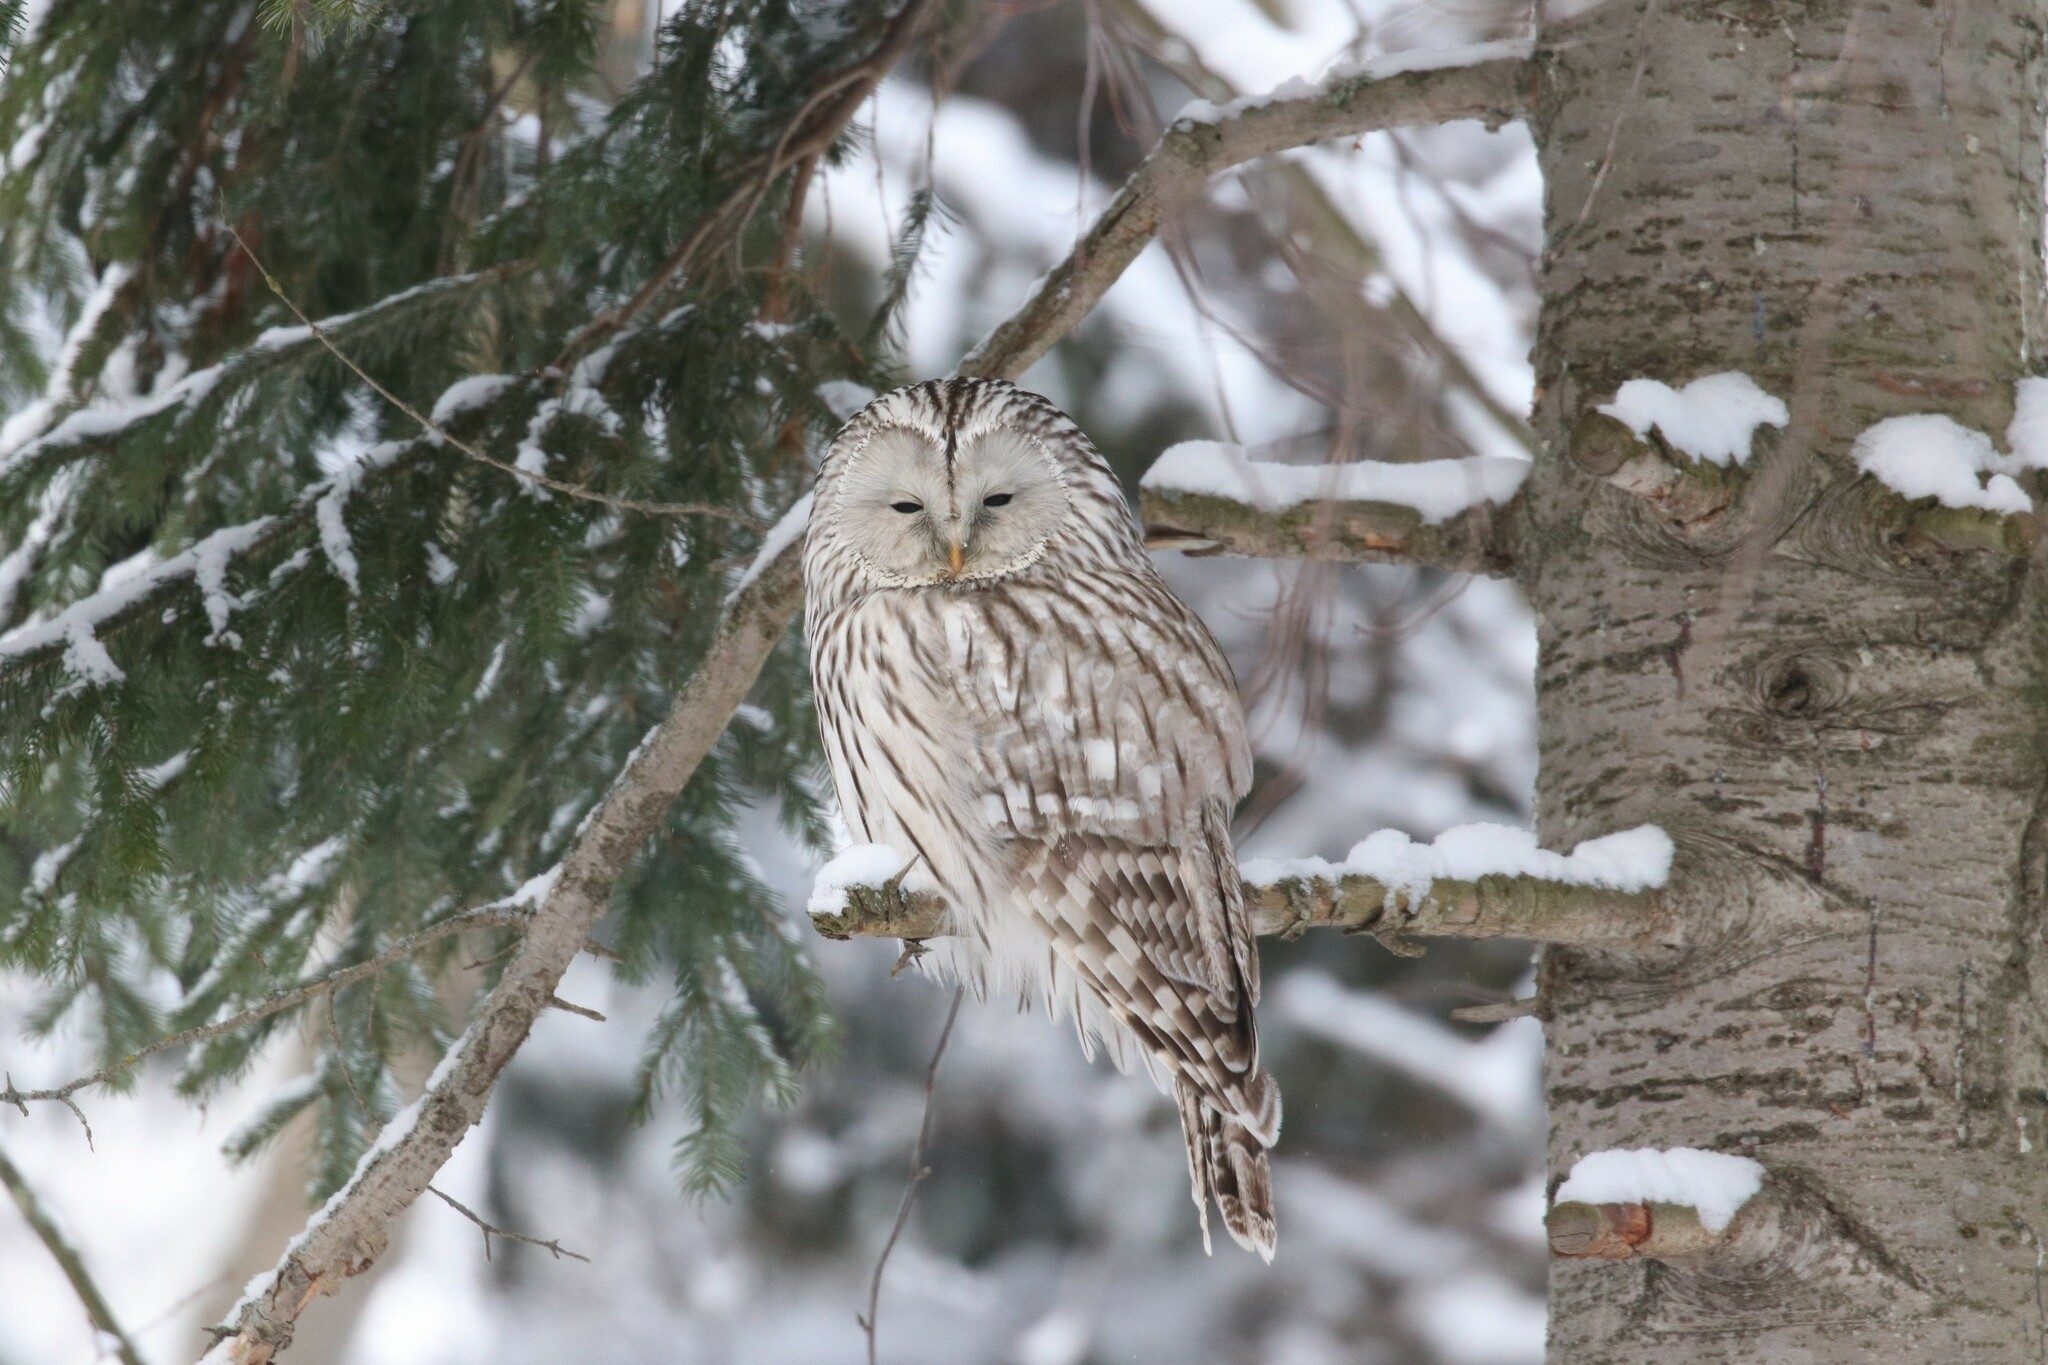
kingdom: Animalia
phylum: Chordata
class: Aves
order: Strigiformes
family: Strigidae
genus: Strix
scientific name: Strix uralensis
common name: Ural owl
